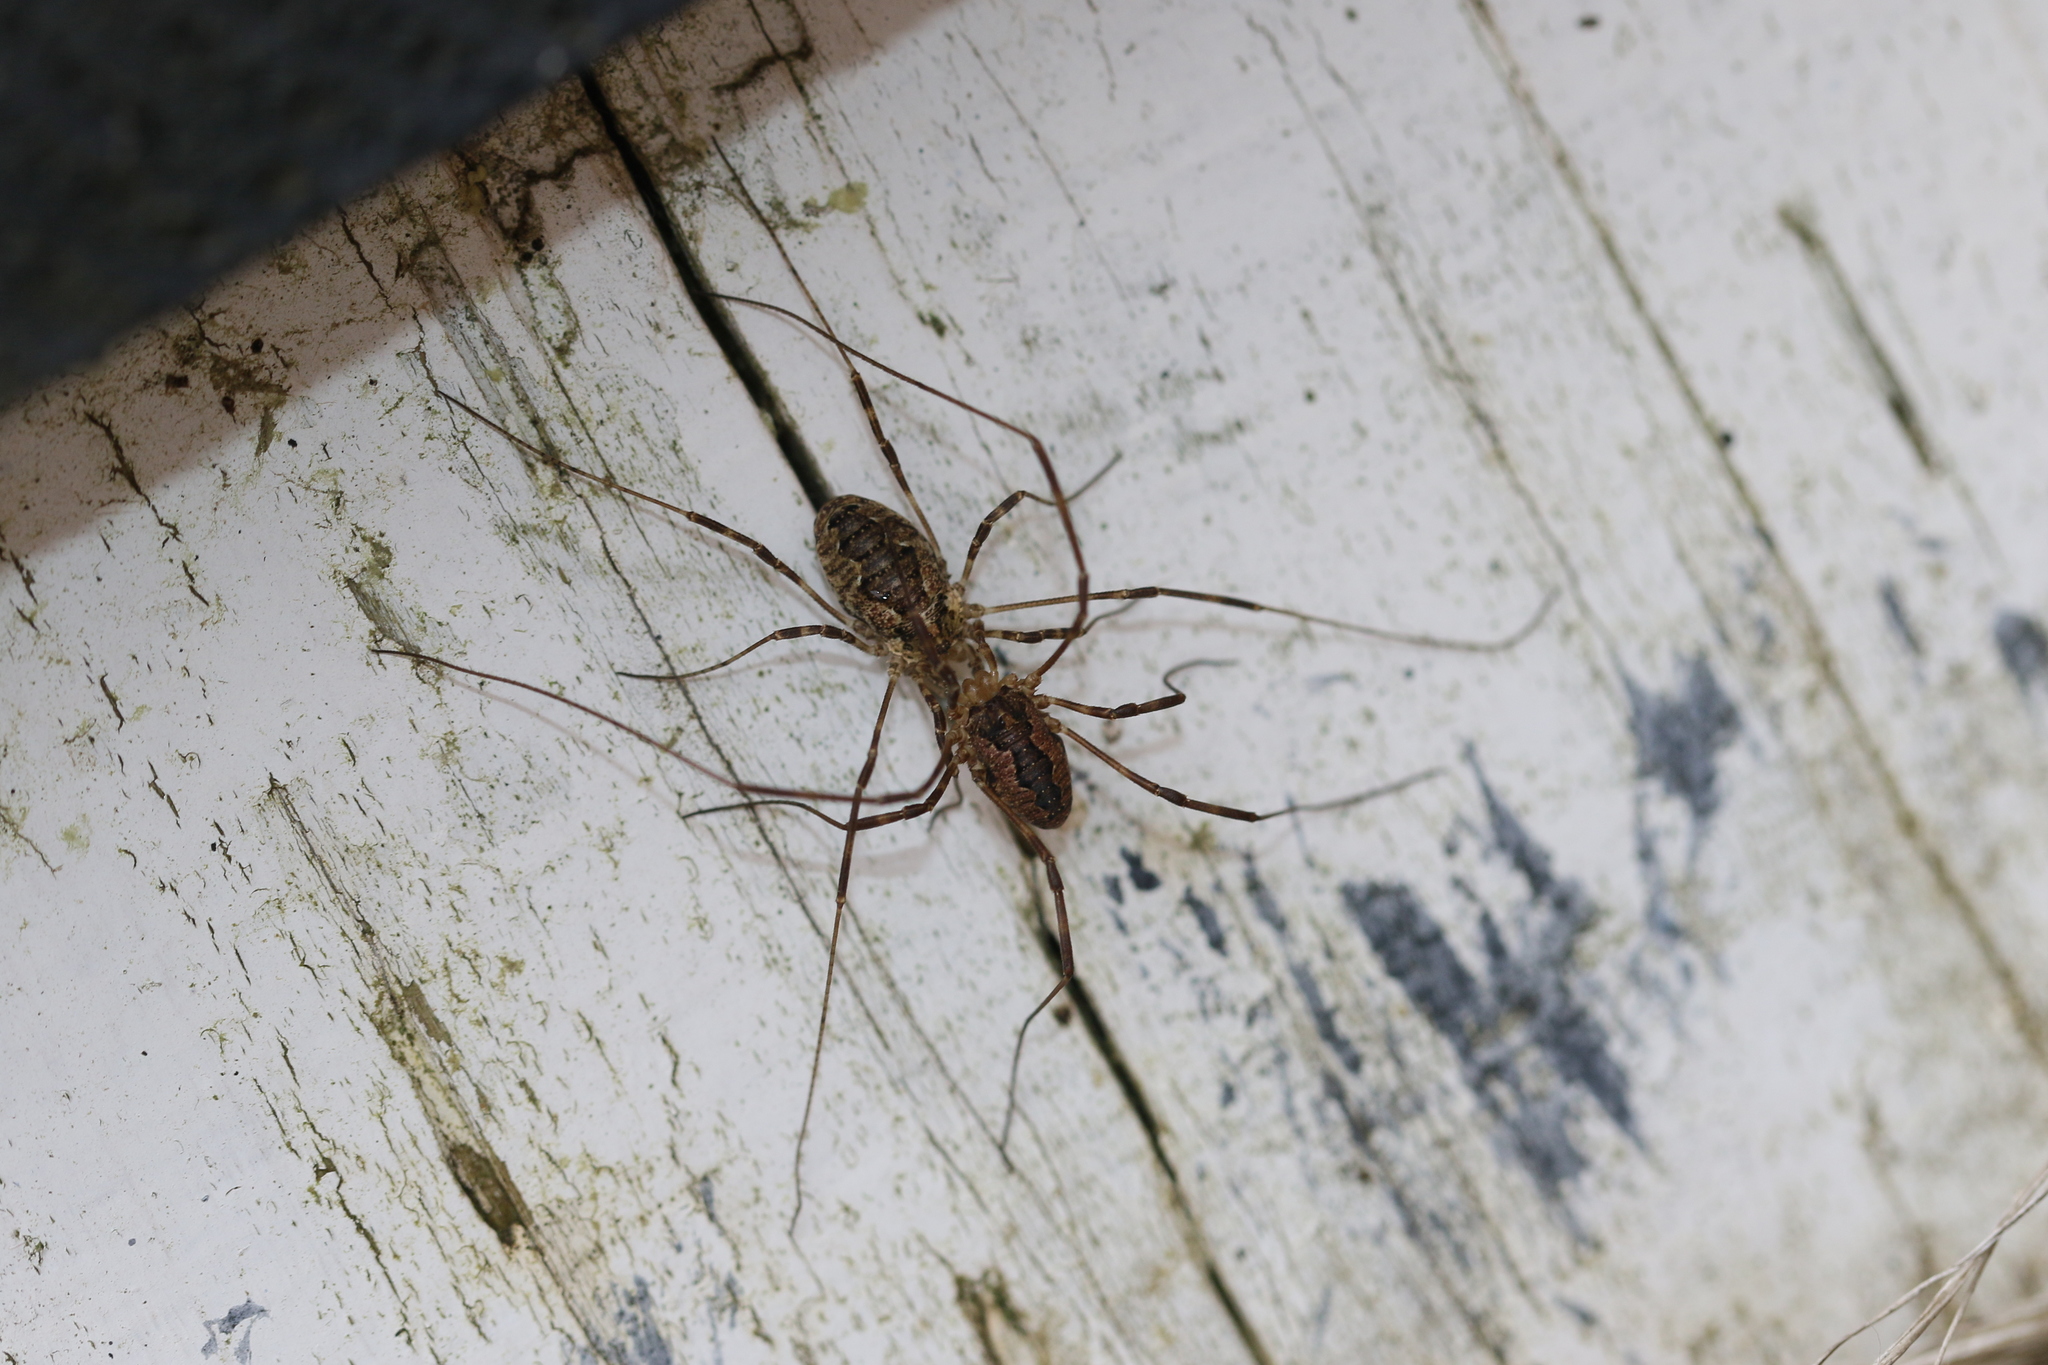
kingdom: Animalia
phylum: Arthropoda
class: Arachnida
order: Opiliones
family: Phalangiidae
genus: Odiellus
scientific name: Odiellus pictus
